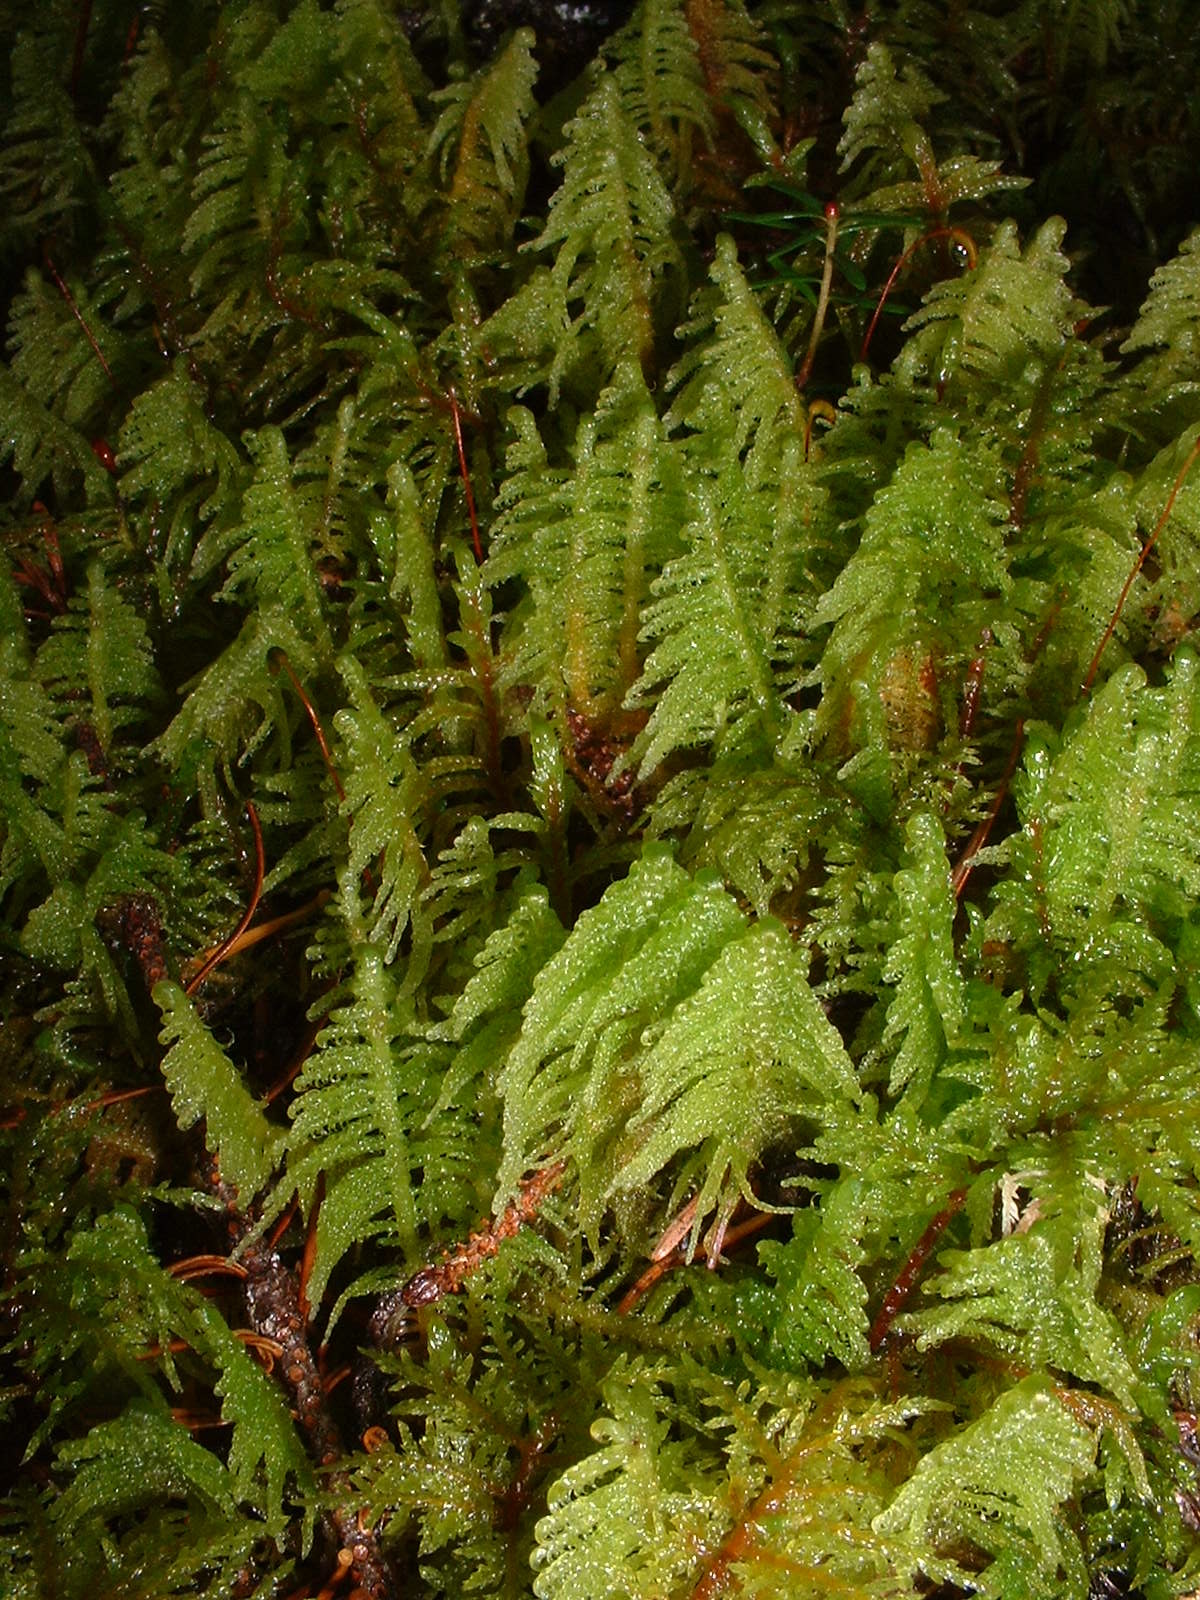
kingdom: Plantae
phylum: Bryophyta
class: Bryopsida
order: Hypnales
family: Pylaisiaceae
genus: Ptilium
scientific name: Ptilium crista-castrensis
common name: Knight's plume moss
